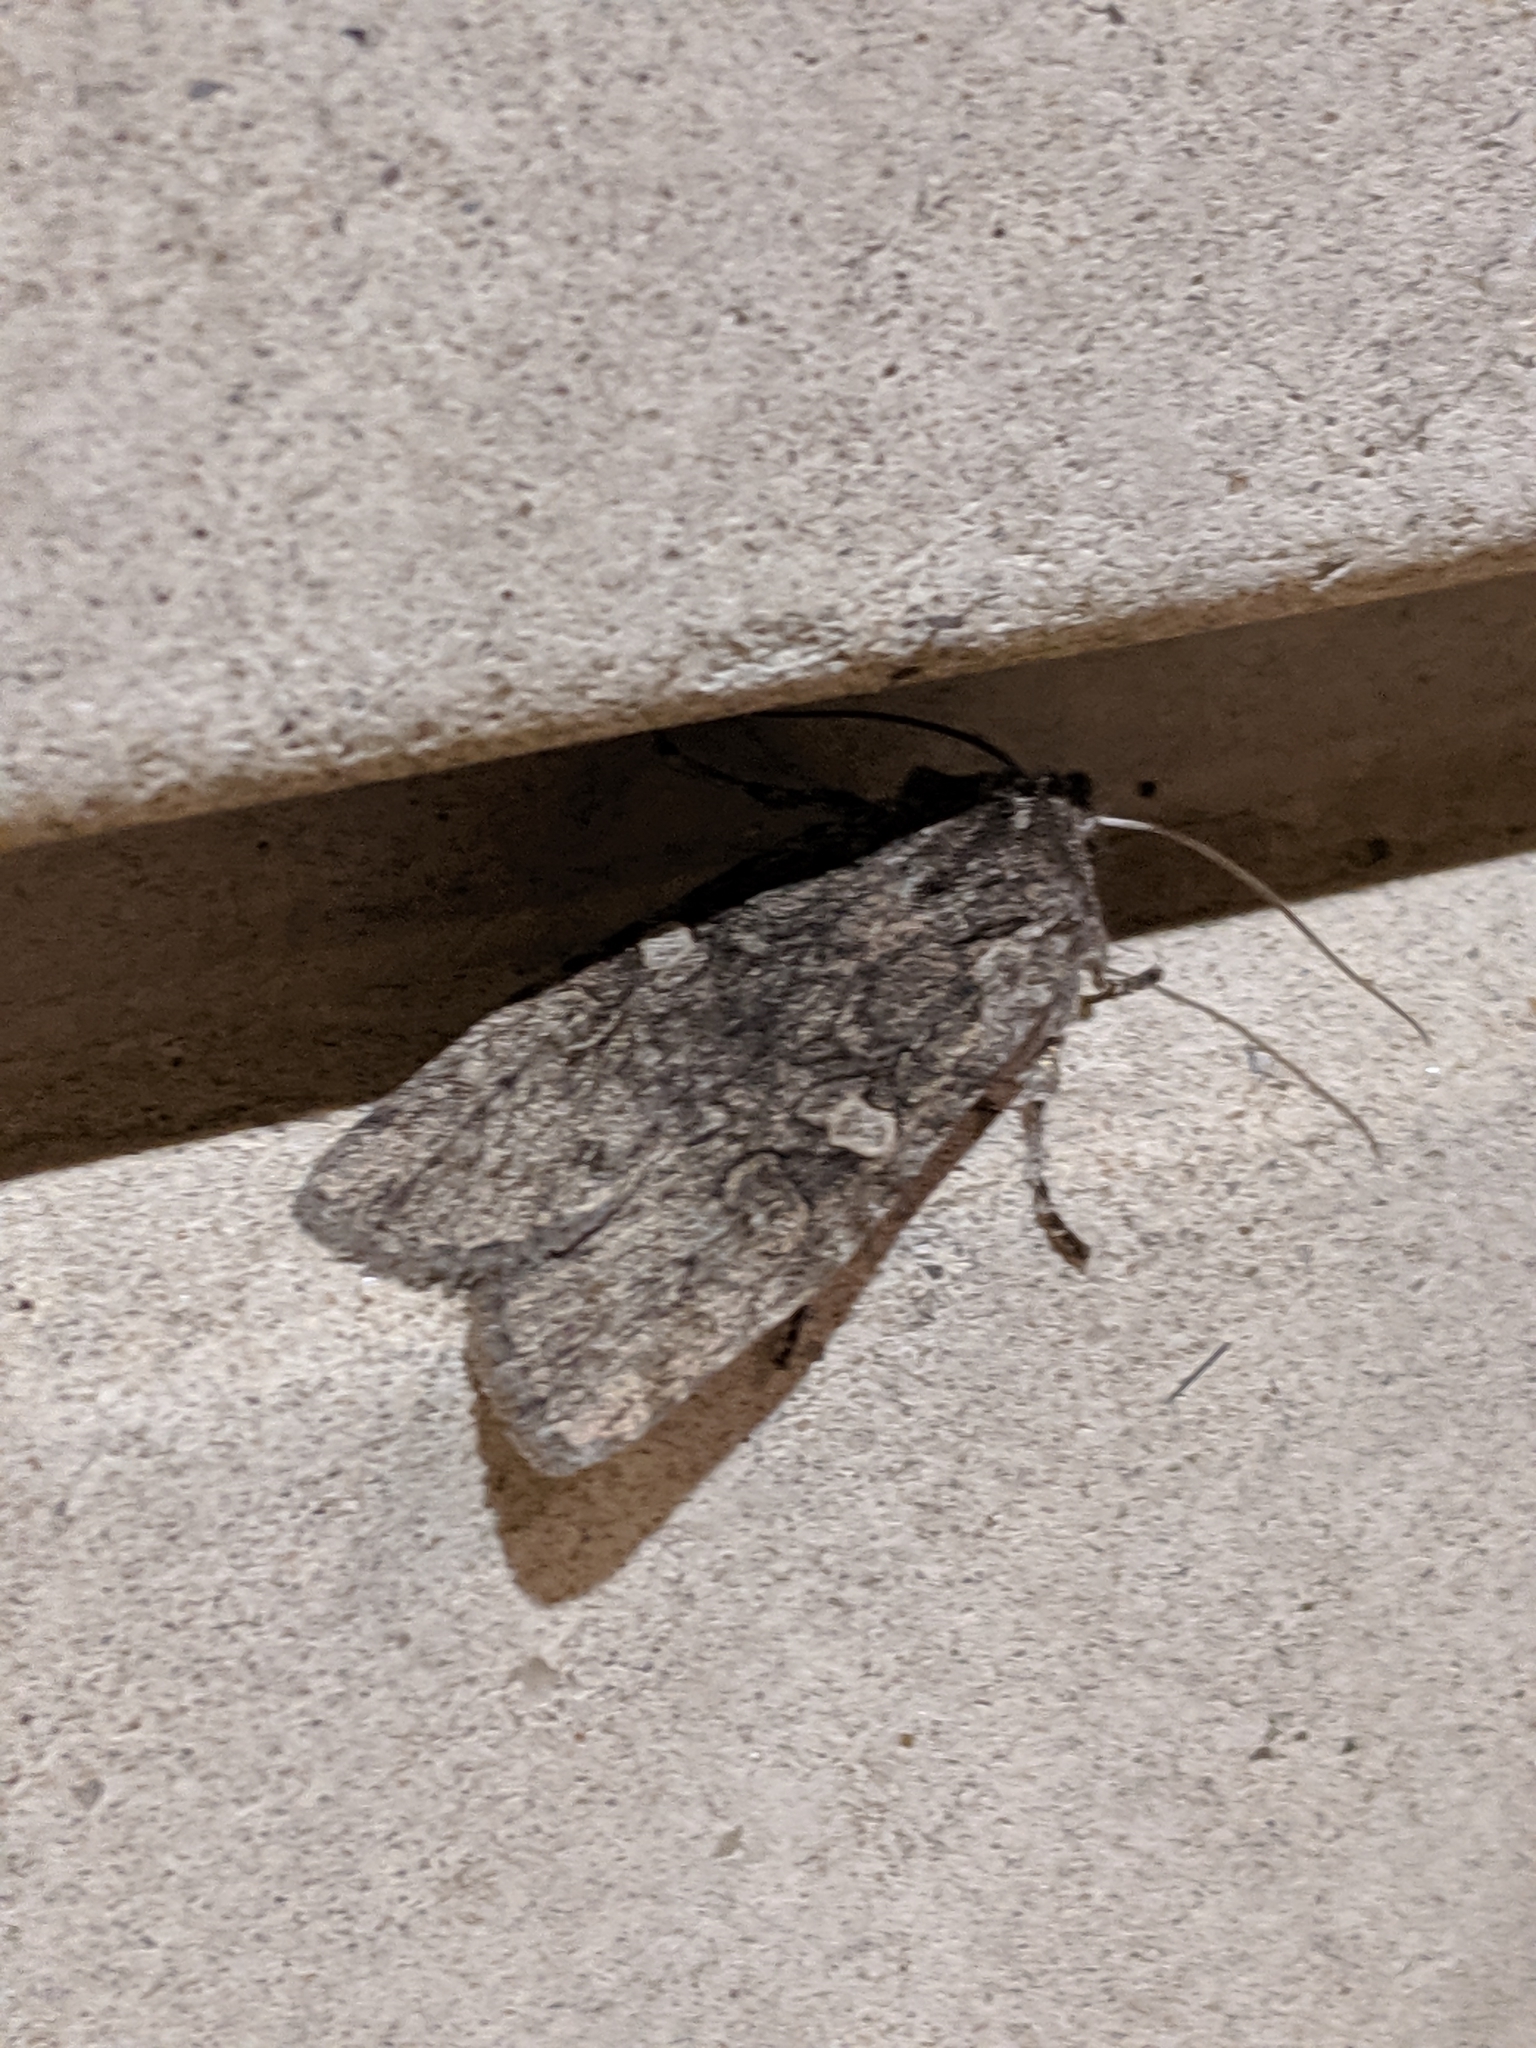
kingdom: Animalia
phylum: Arthropoda
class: Insecta
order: Lepidoptera
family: Noctuidae
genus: Lithophane
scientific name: Lithophane grotei
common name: Grote's pinion moth
